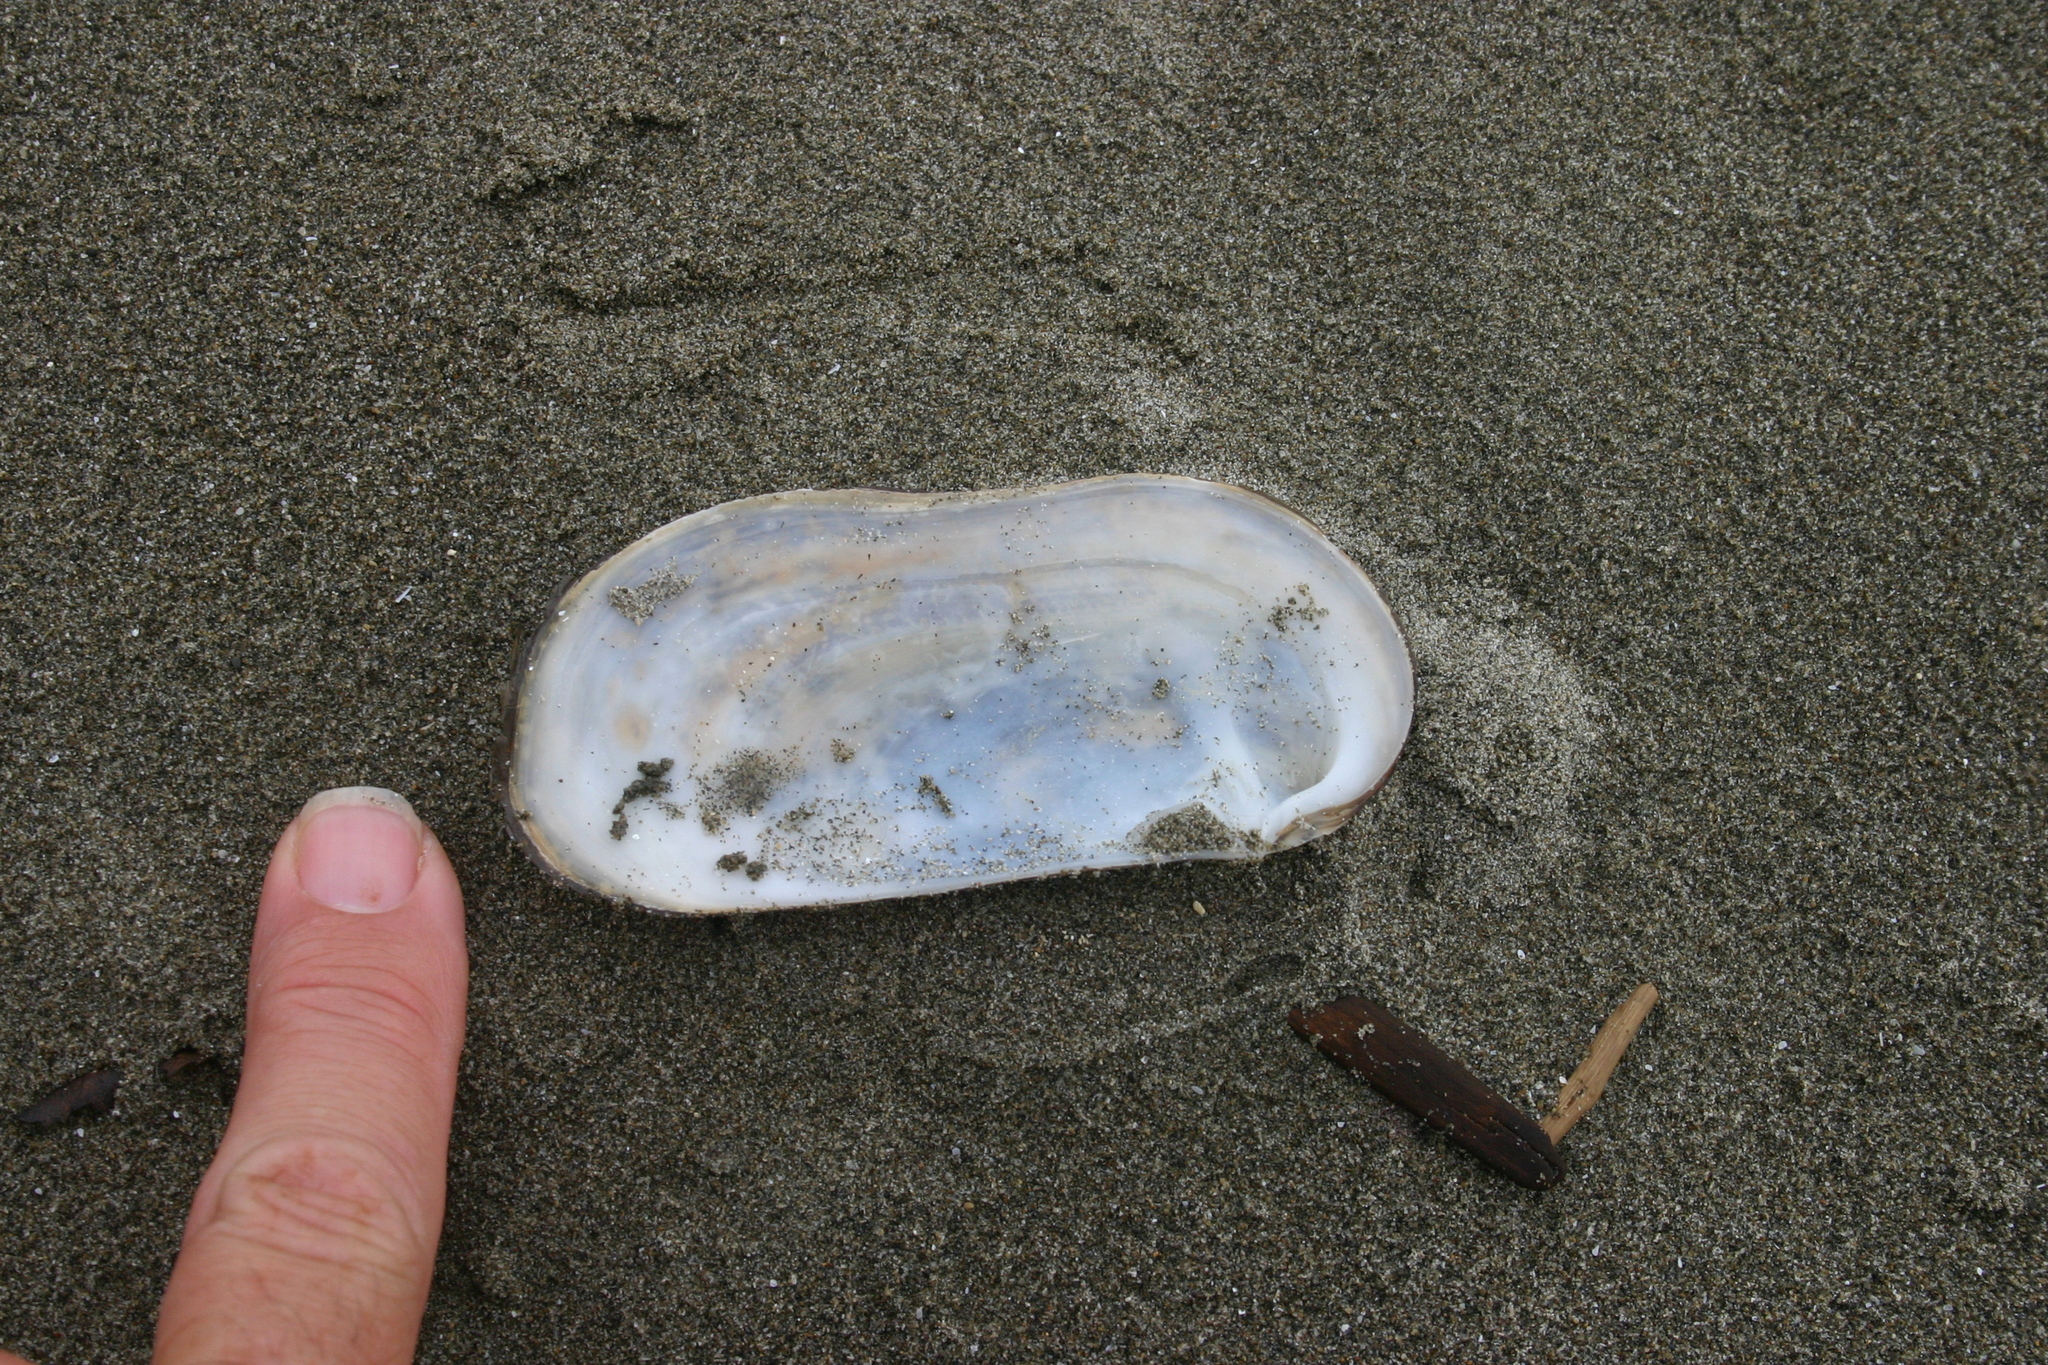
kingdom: Animalia
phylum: Mollusca
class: Bivalvia
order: Venerida
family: Mactridae
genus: Zenatia
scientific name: Zenatia acinaces
